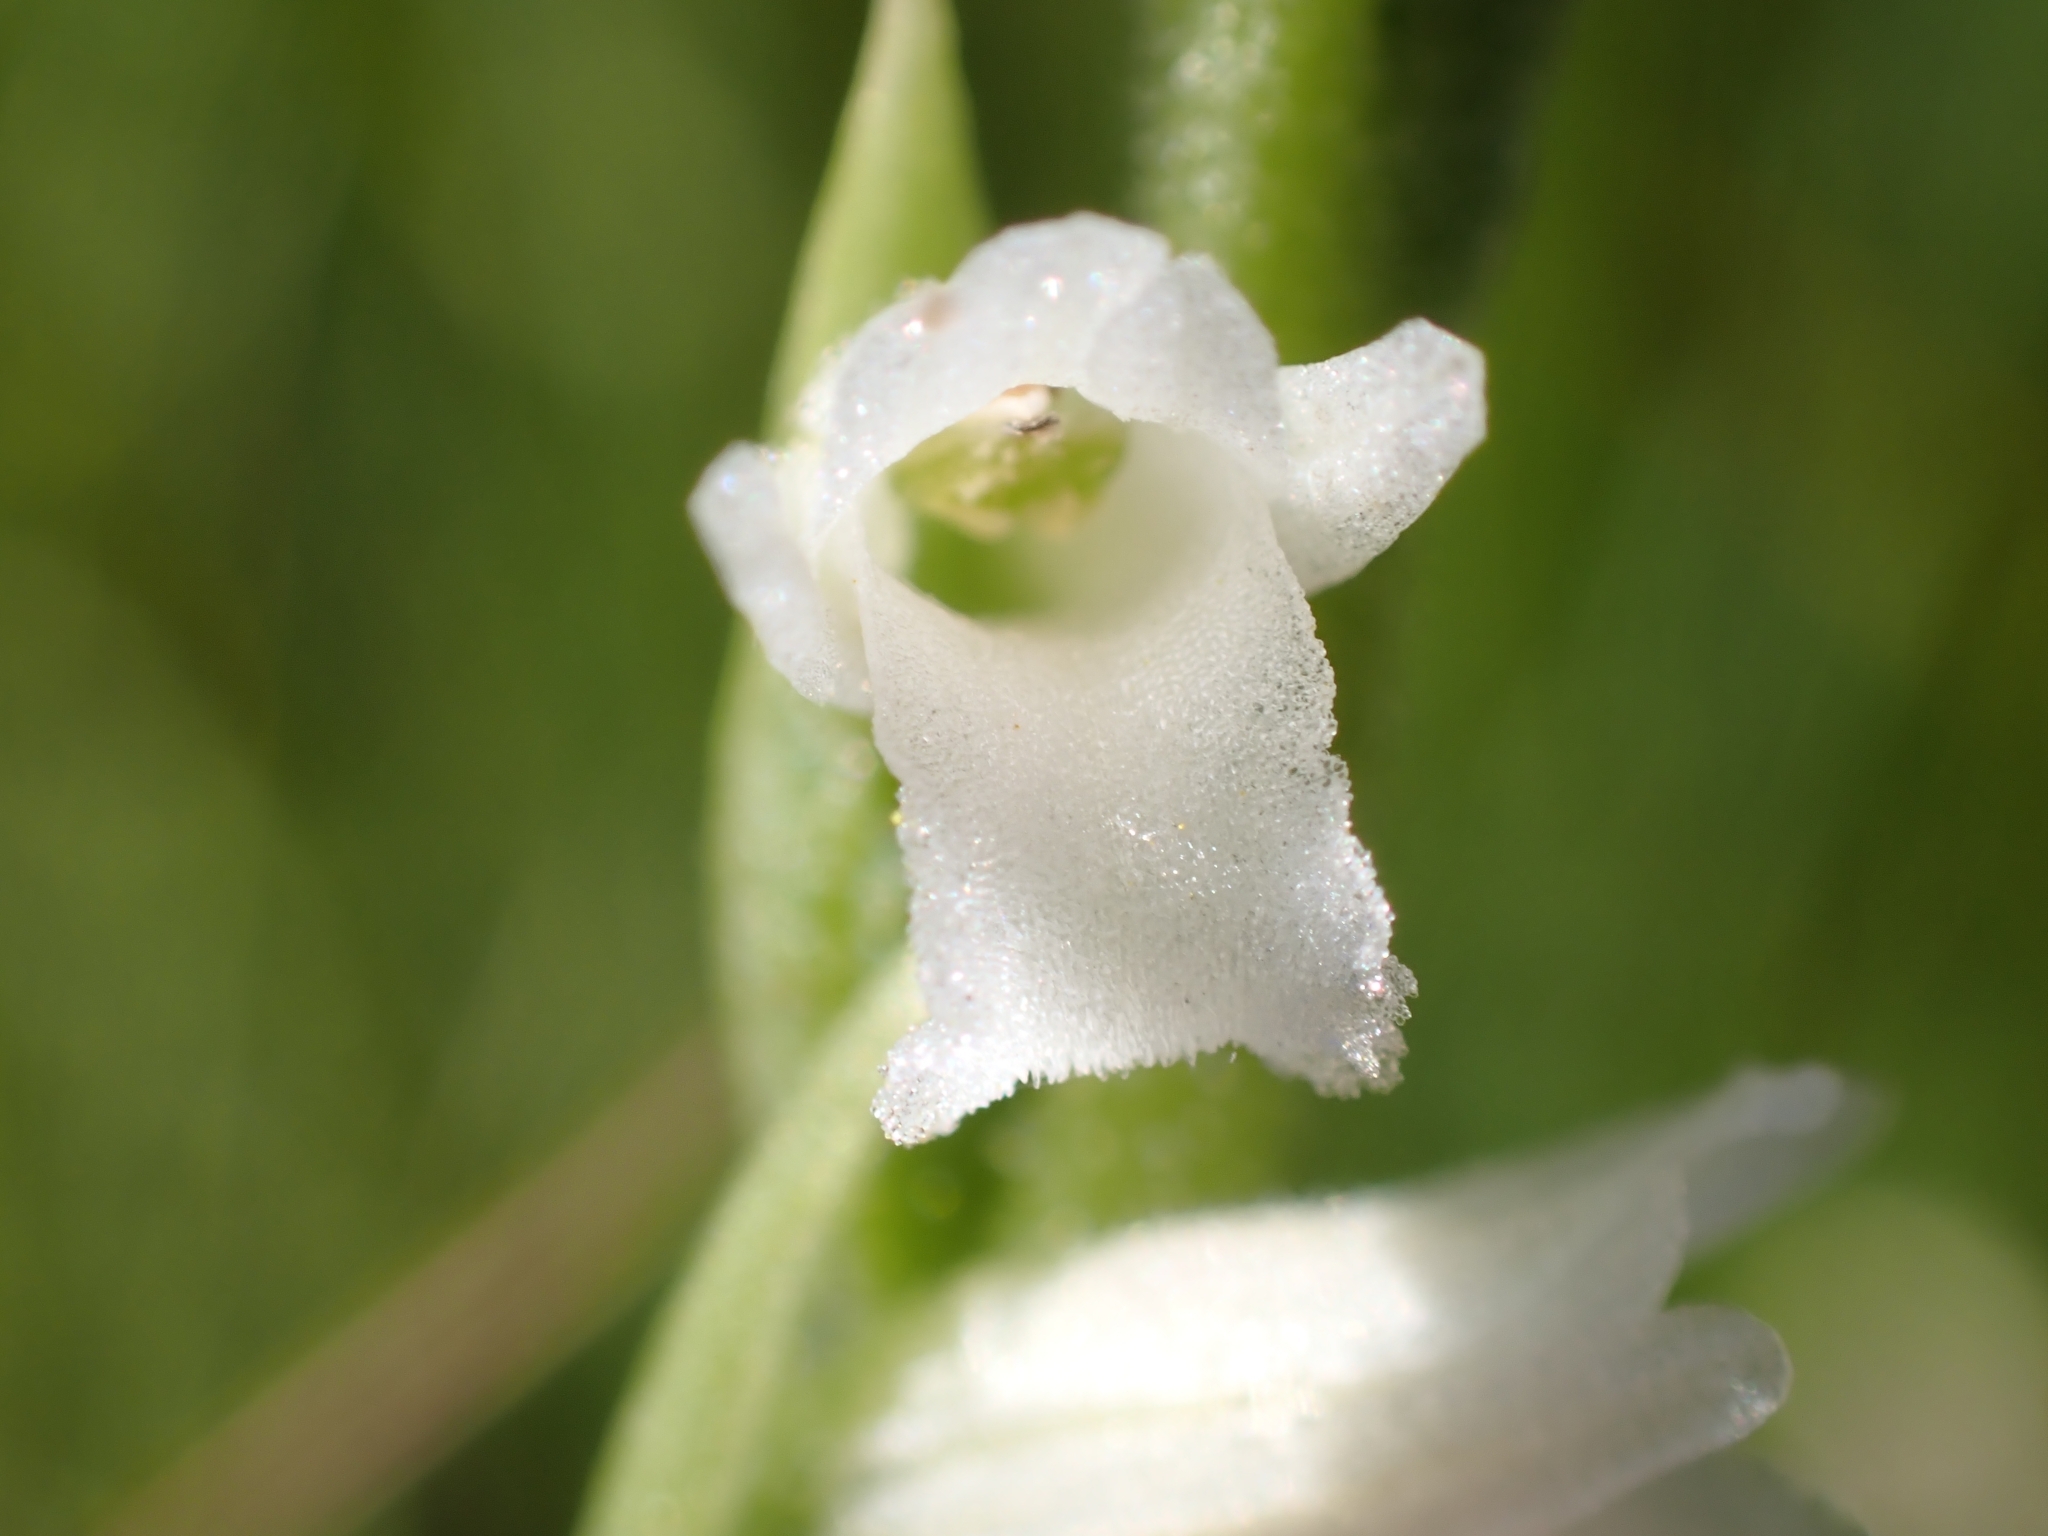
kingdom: Plantae
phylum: Tracheophyta
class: Liliopsida
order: Asparagales
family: Orchidaceae
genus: Spiranthes
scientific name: Spiranthes aestivalis
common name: Summer lady's-tresses
